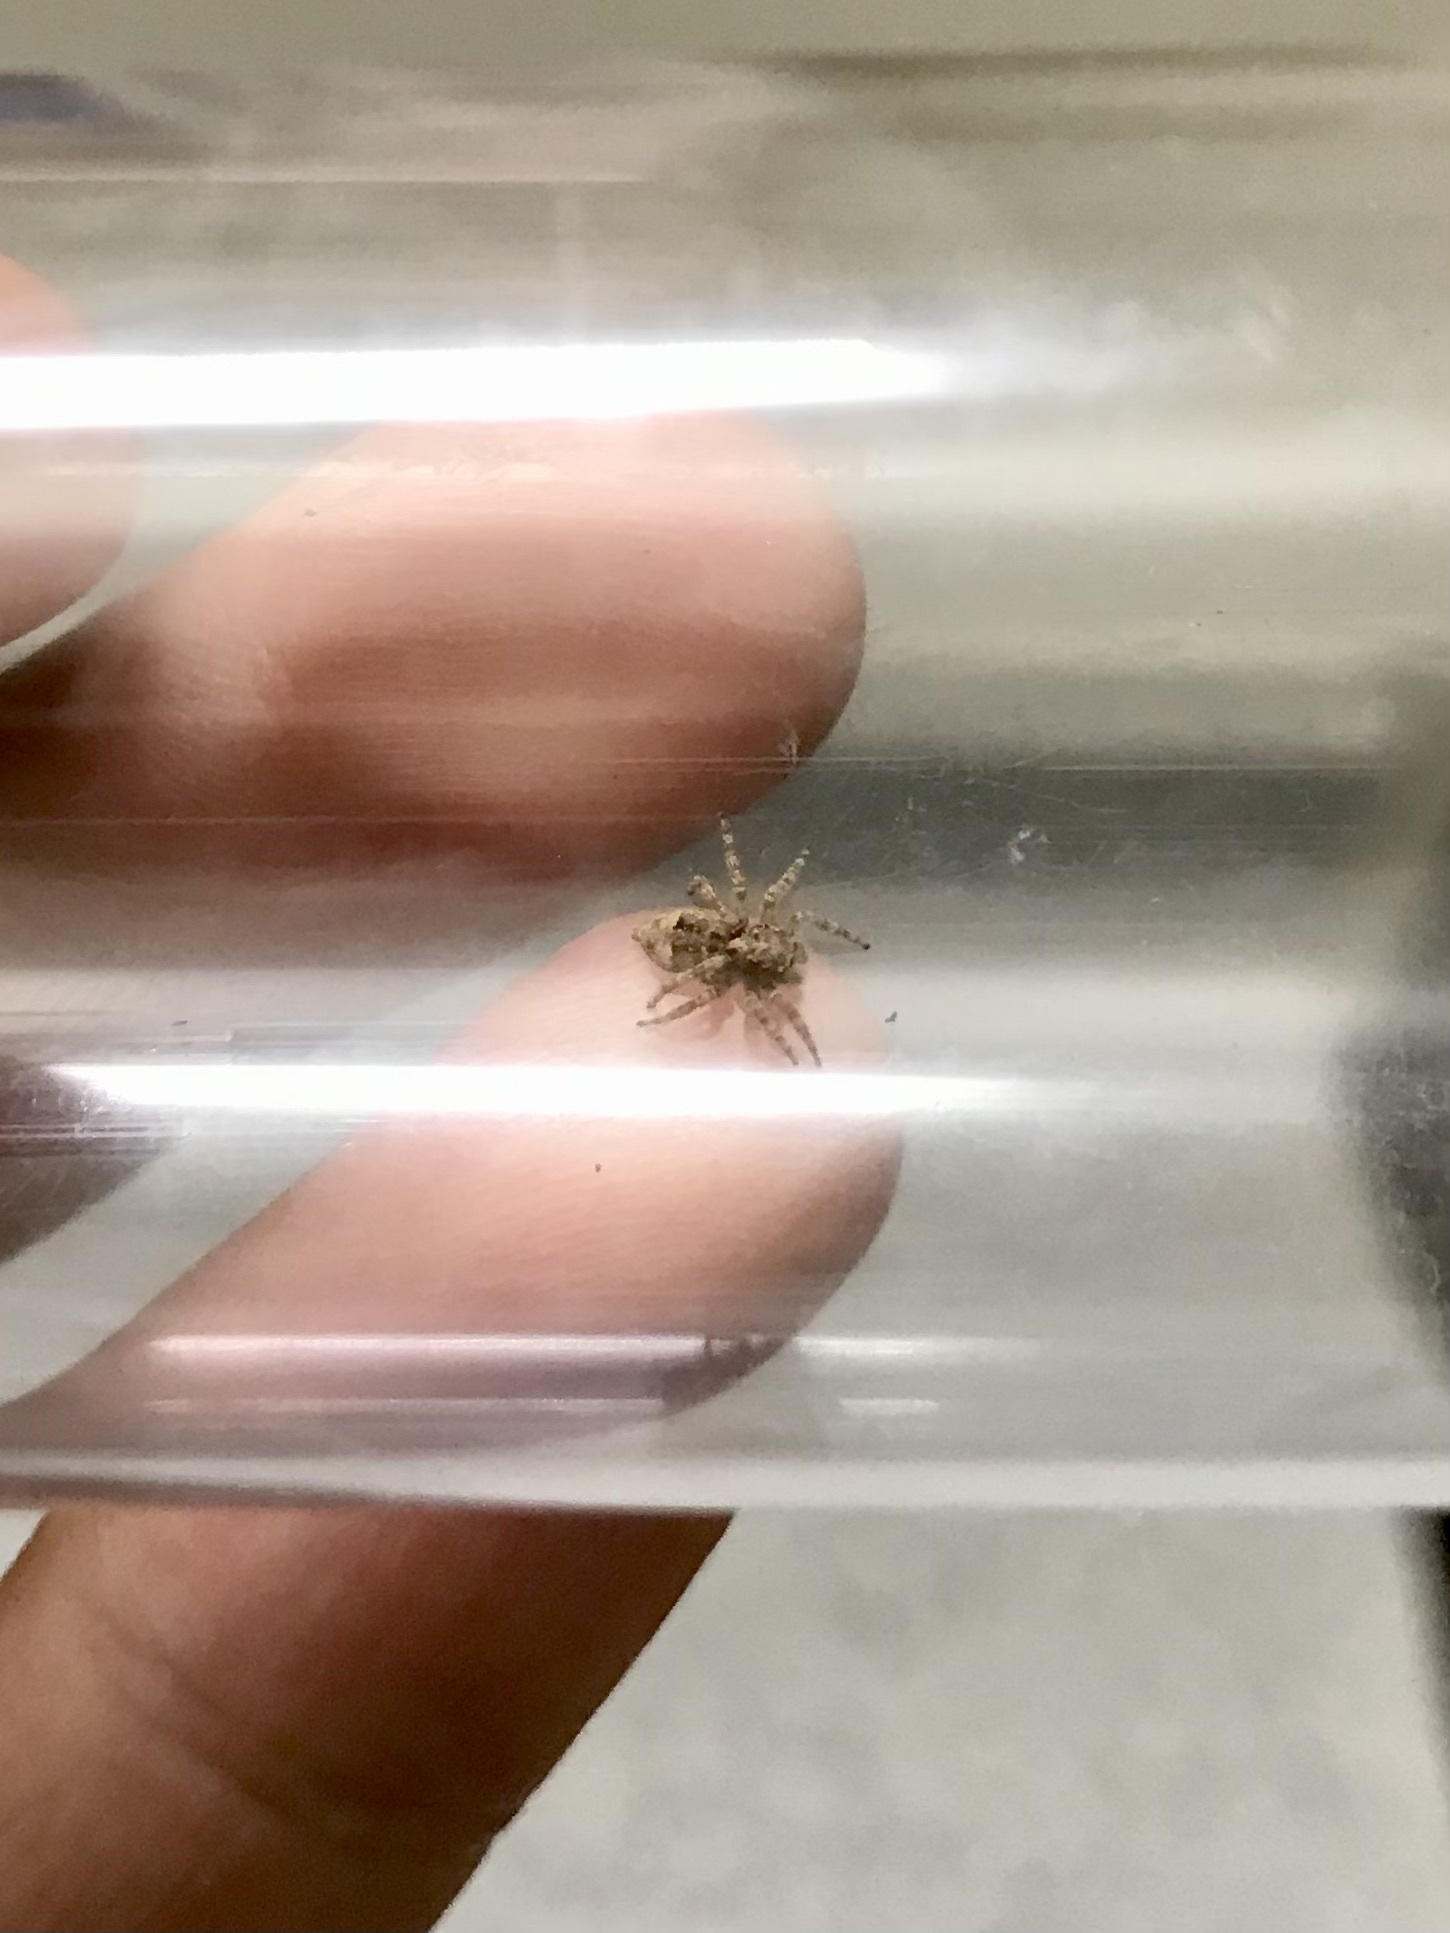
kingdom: Animalia
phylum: Arthropoda
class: Arachnida
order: Araneae
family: Salticidae
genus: Attulus
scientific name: Attulus fasciger
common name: Asiatic wall jumping spider
